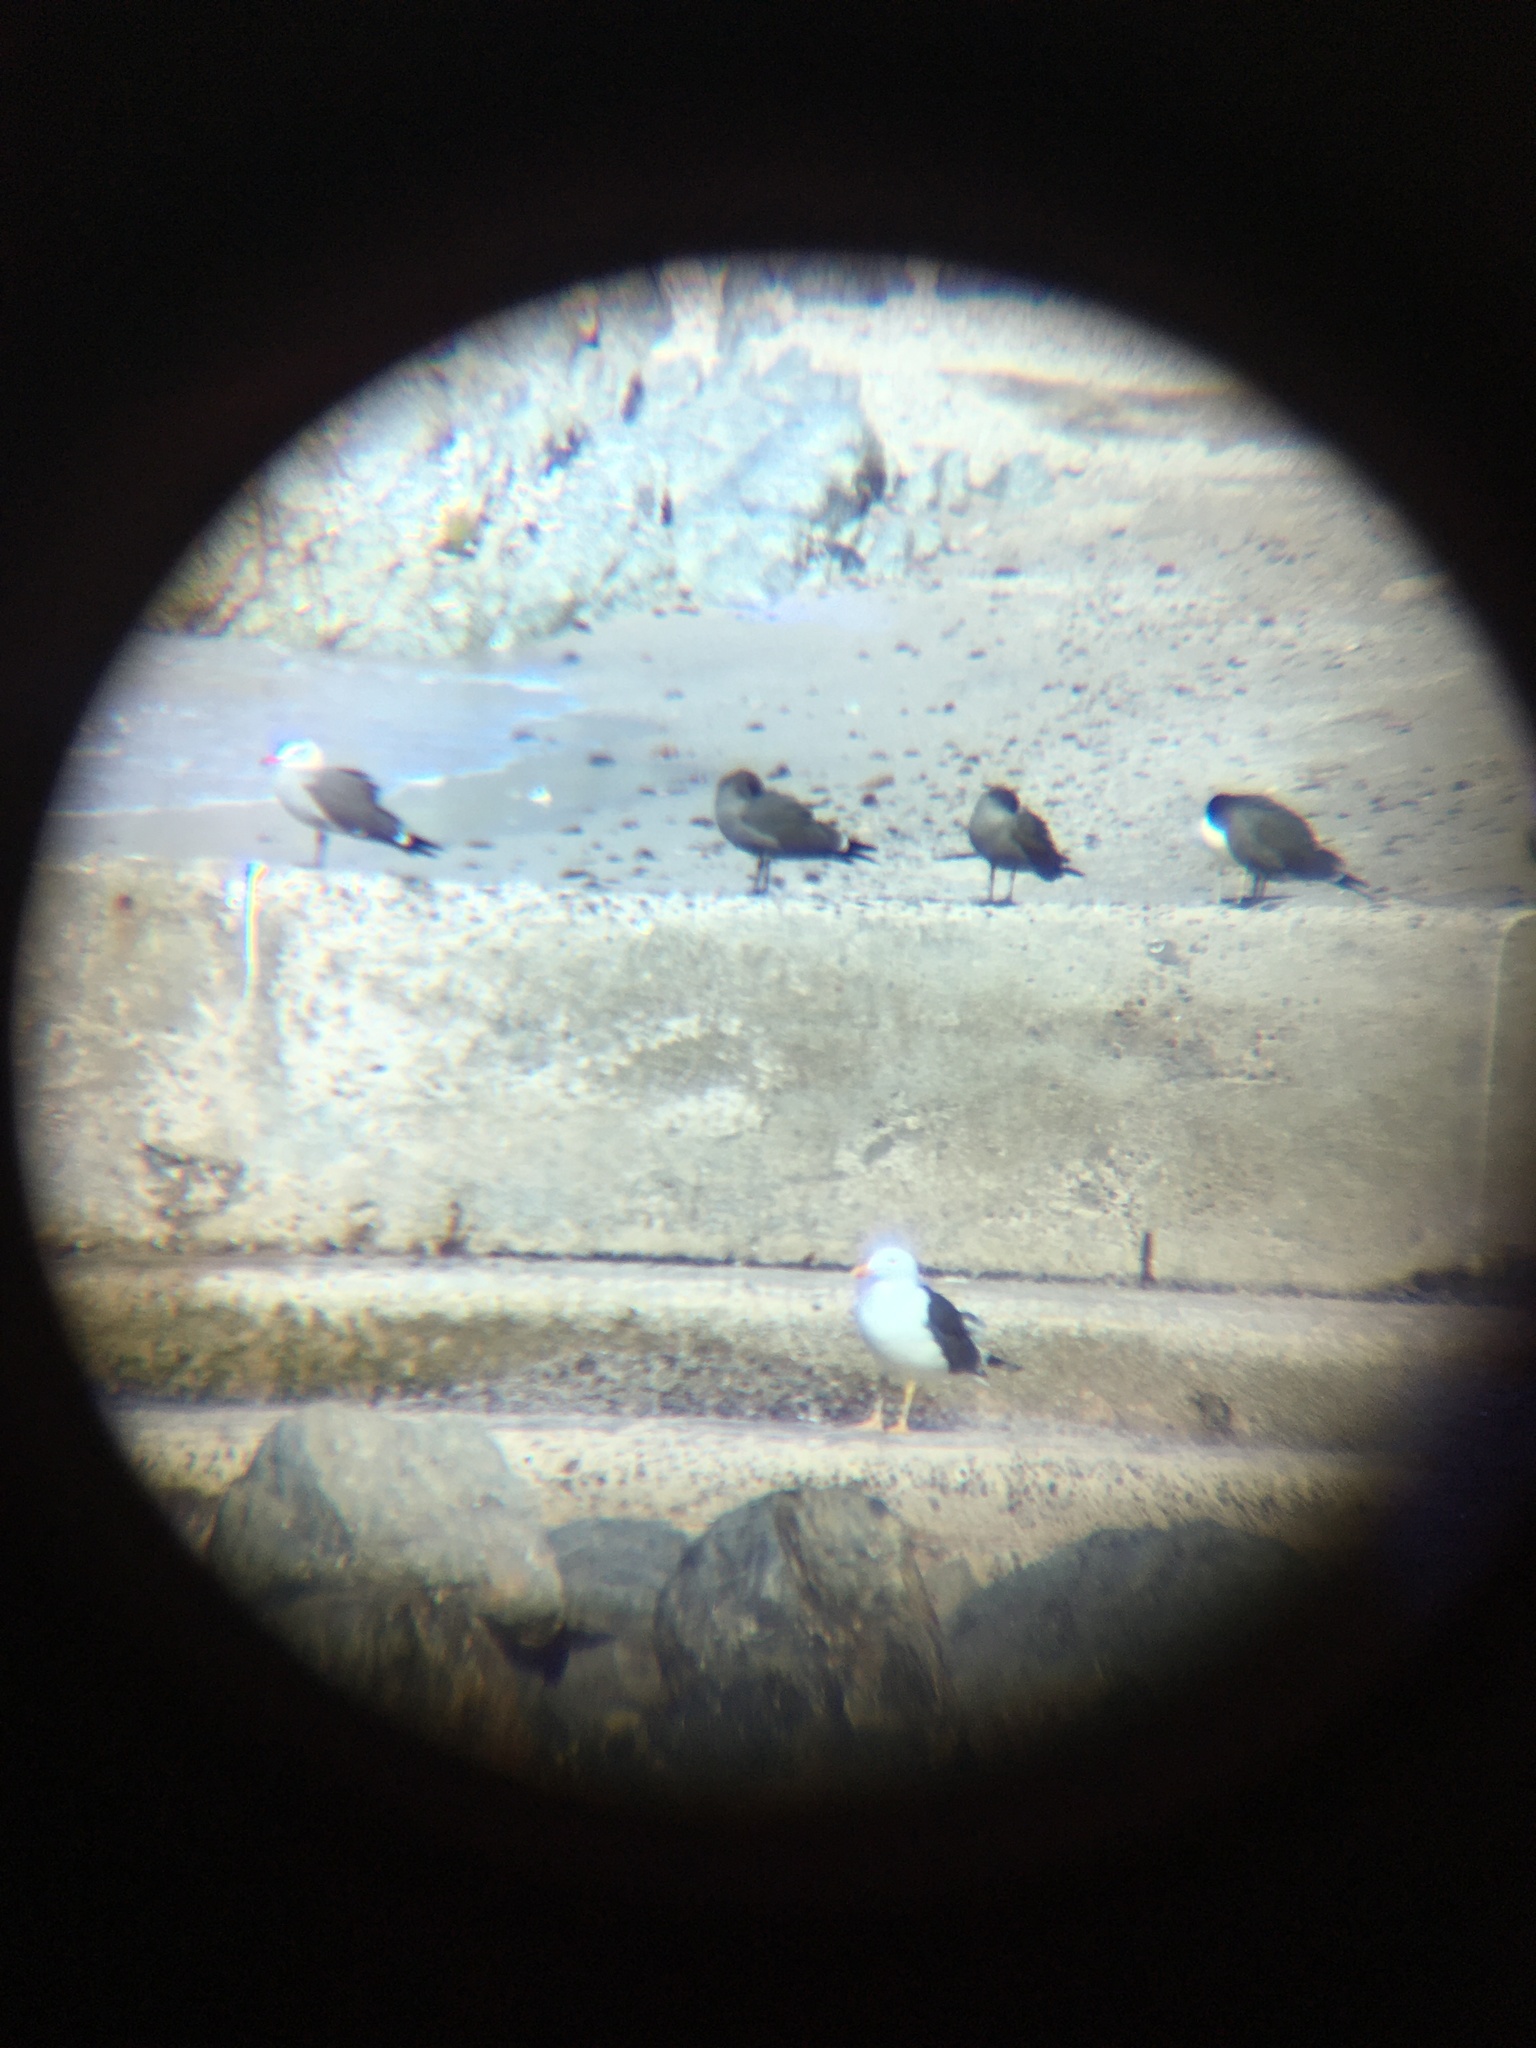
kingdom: Animalia
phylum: Chordata
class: Aves
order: Charadriiformes
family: Laridae
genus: Larus
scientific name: Larus livens
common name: Yellow-footed gull
